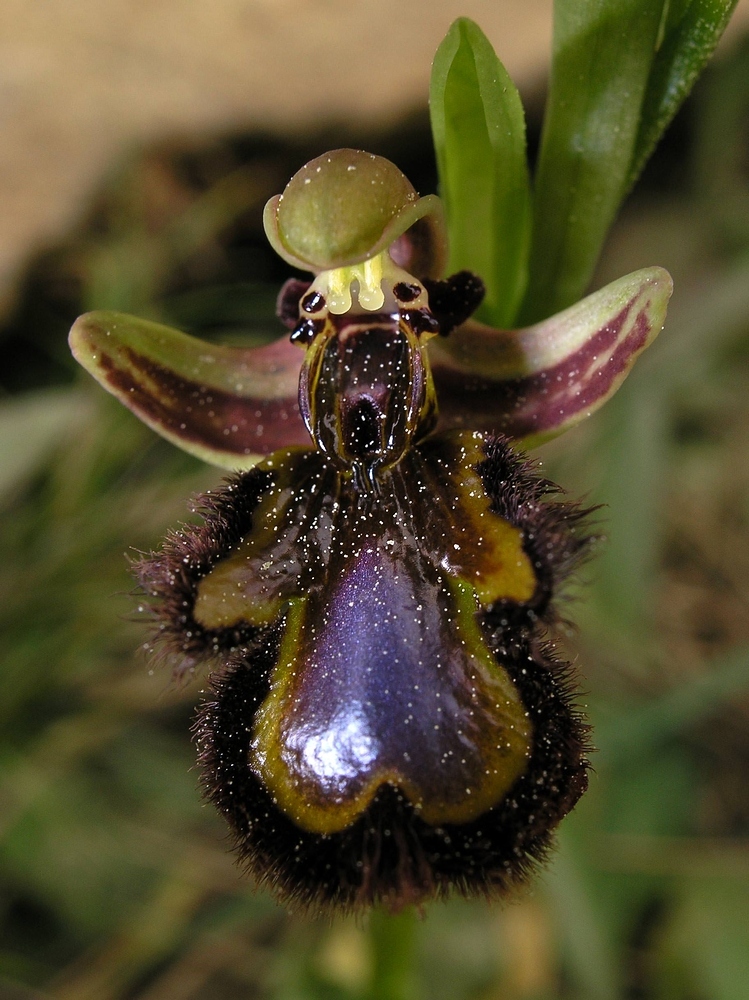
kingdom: Plantae
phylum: Tracheophyta
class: Liliopsida
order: Asparagales
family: Orchidaceae
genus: Ophrys
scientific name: Ophrys speculum
